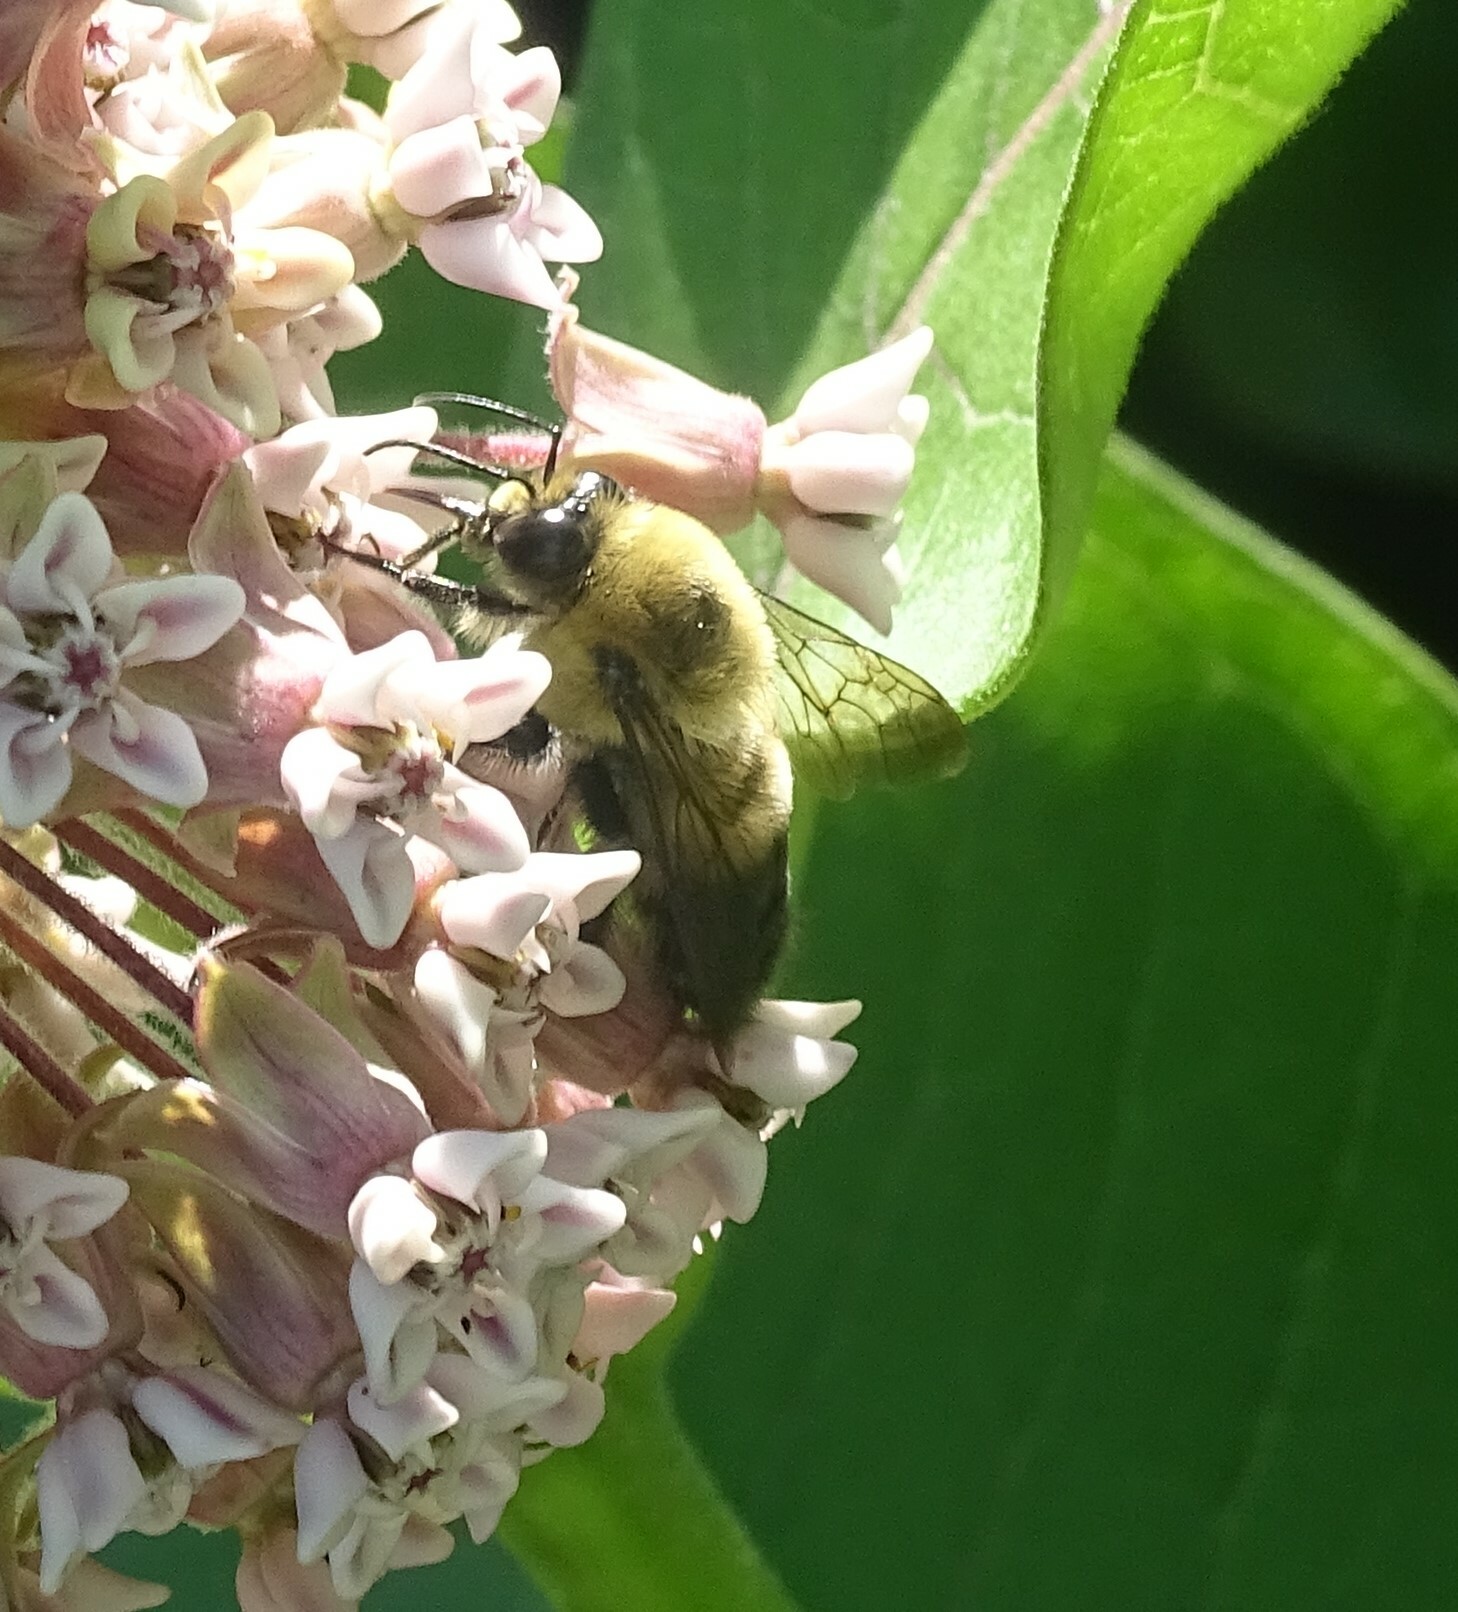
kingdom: Animalia
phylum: Arthropoda
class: Insecta
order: Hymenoptera
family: Apidae
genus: Bombus
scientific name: Bombus griseocollis
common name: Brown-belted bumble bee
